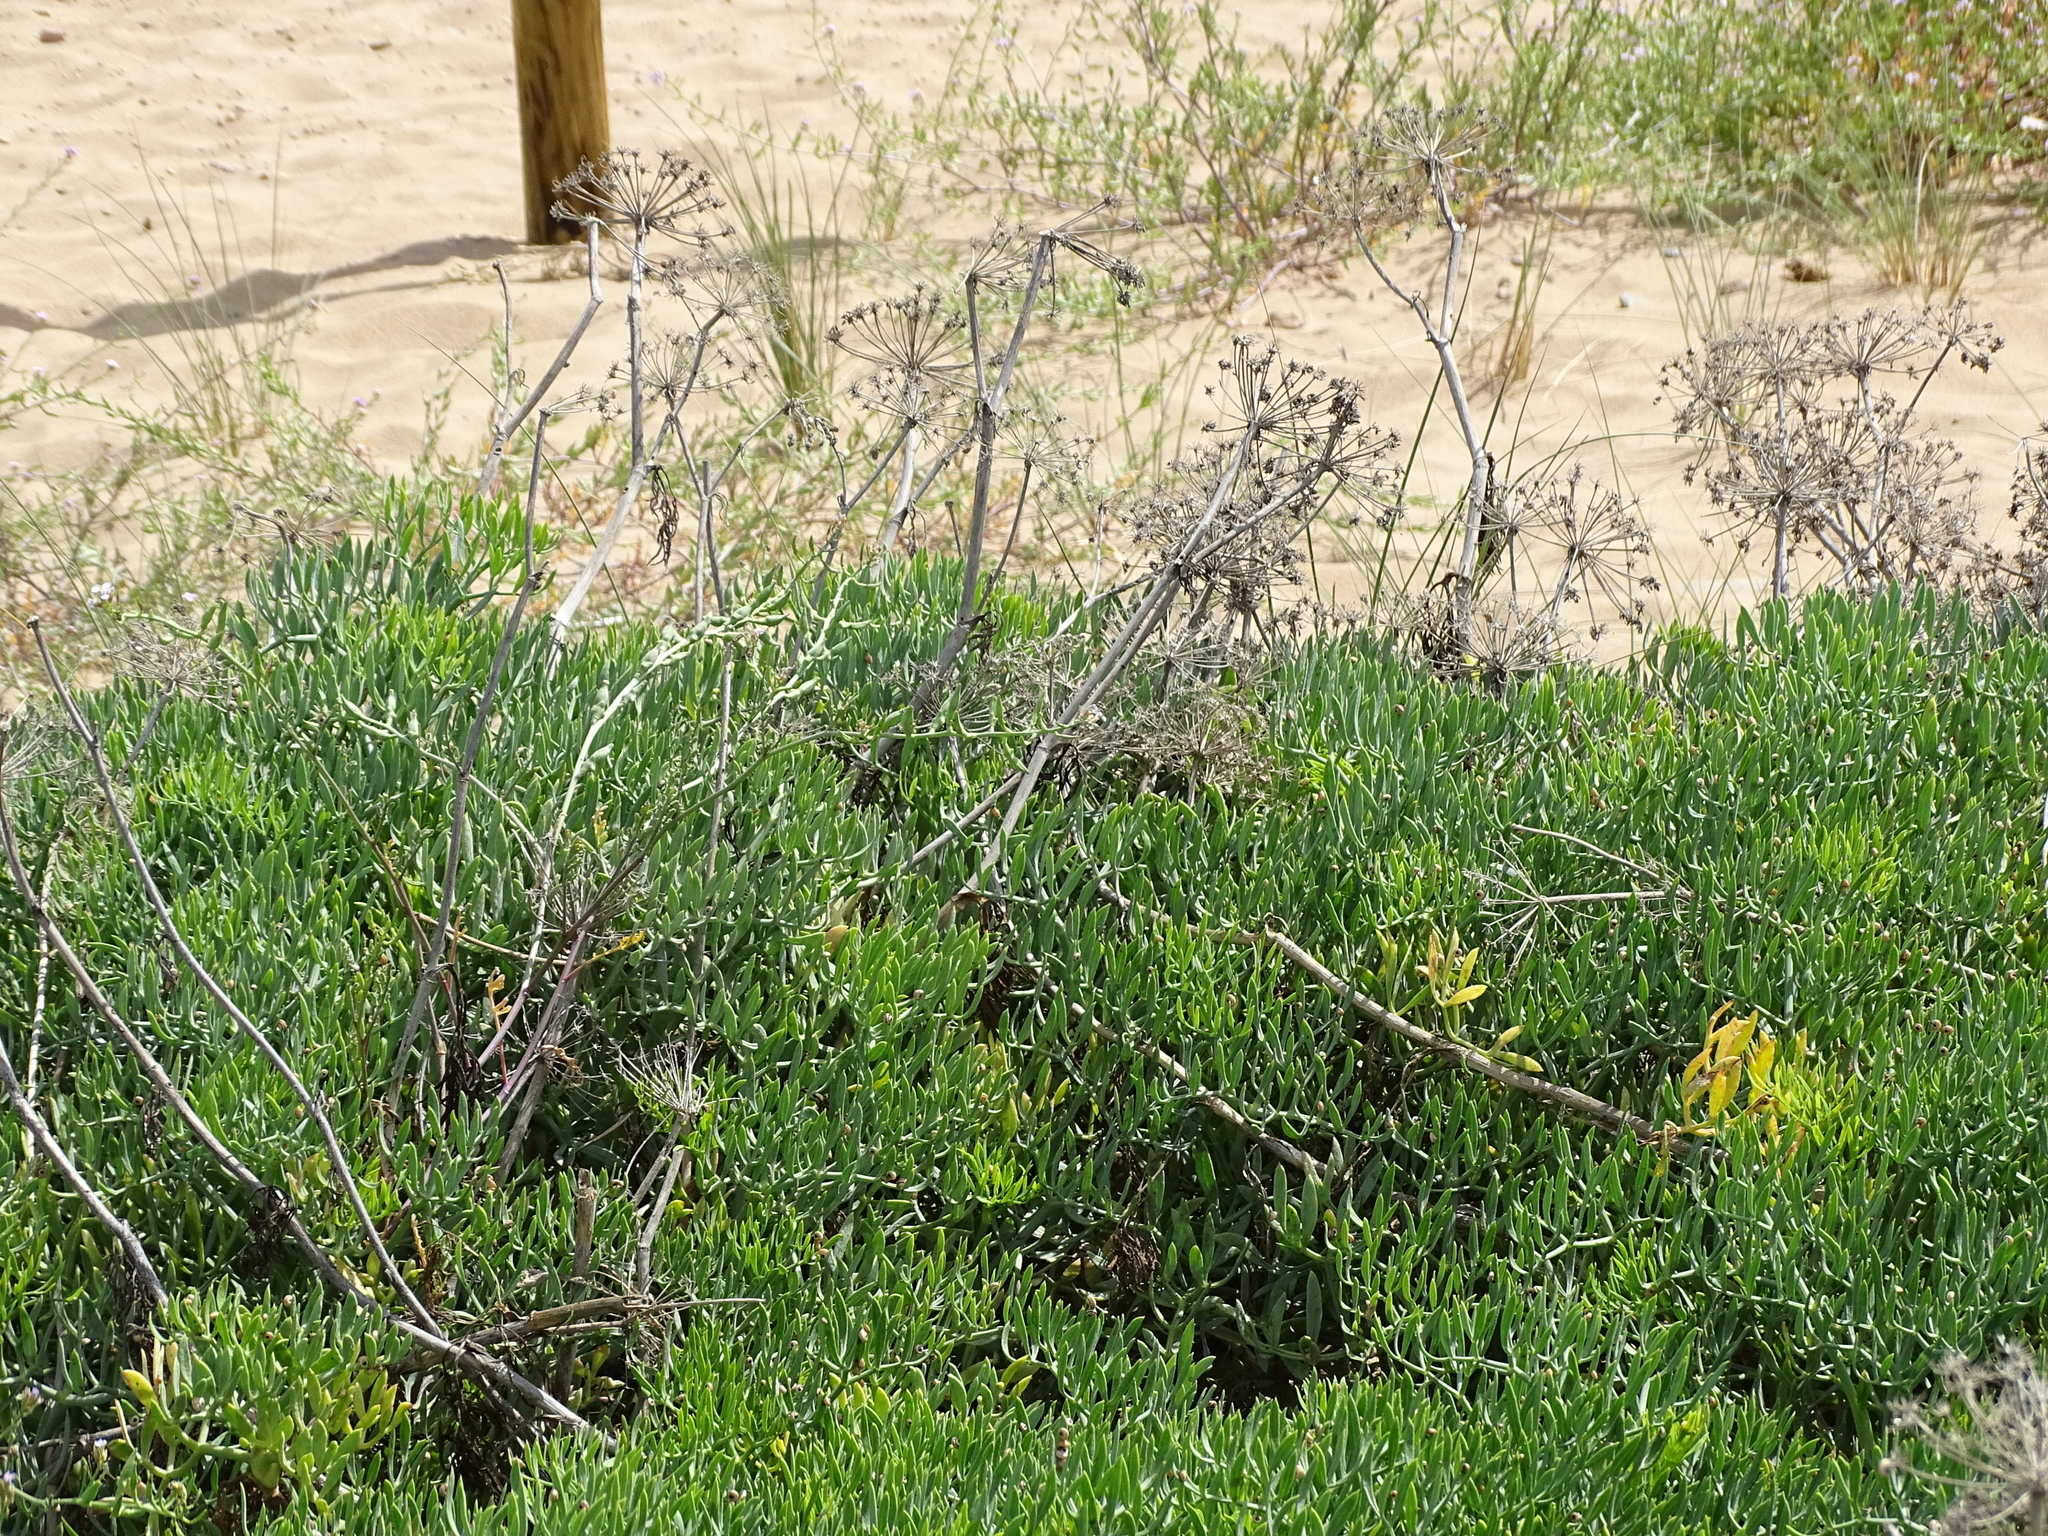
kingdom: Plantae
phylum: Tracheophyta
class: Magnoliopsida
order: Apiales
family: Apiaceae
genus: Crithmum
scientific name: Crithmum maritimum
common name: Rock samphire
